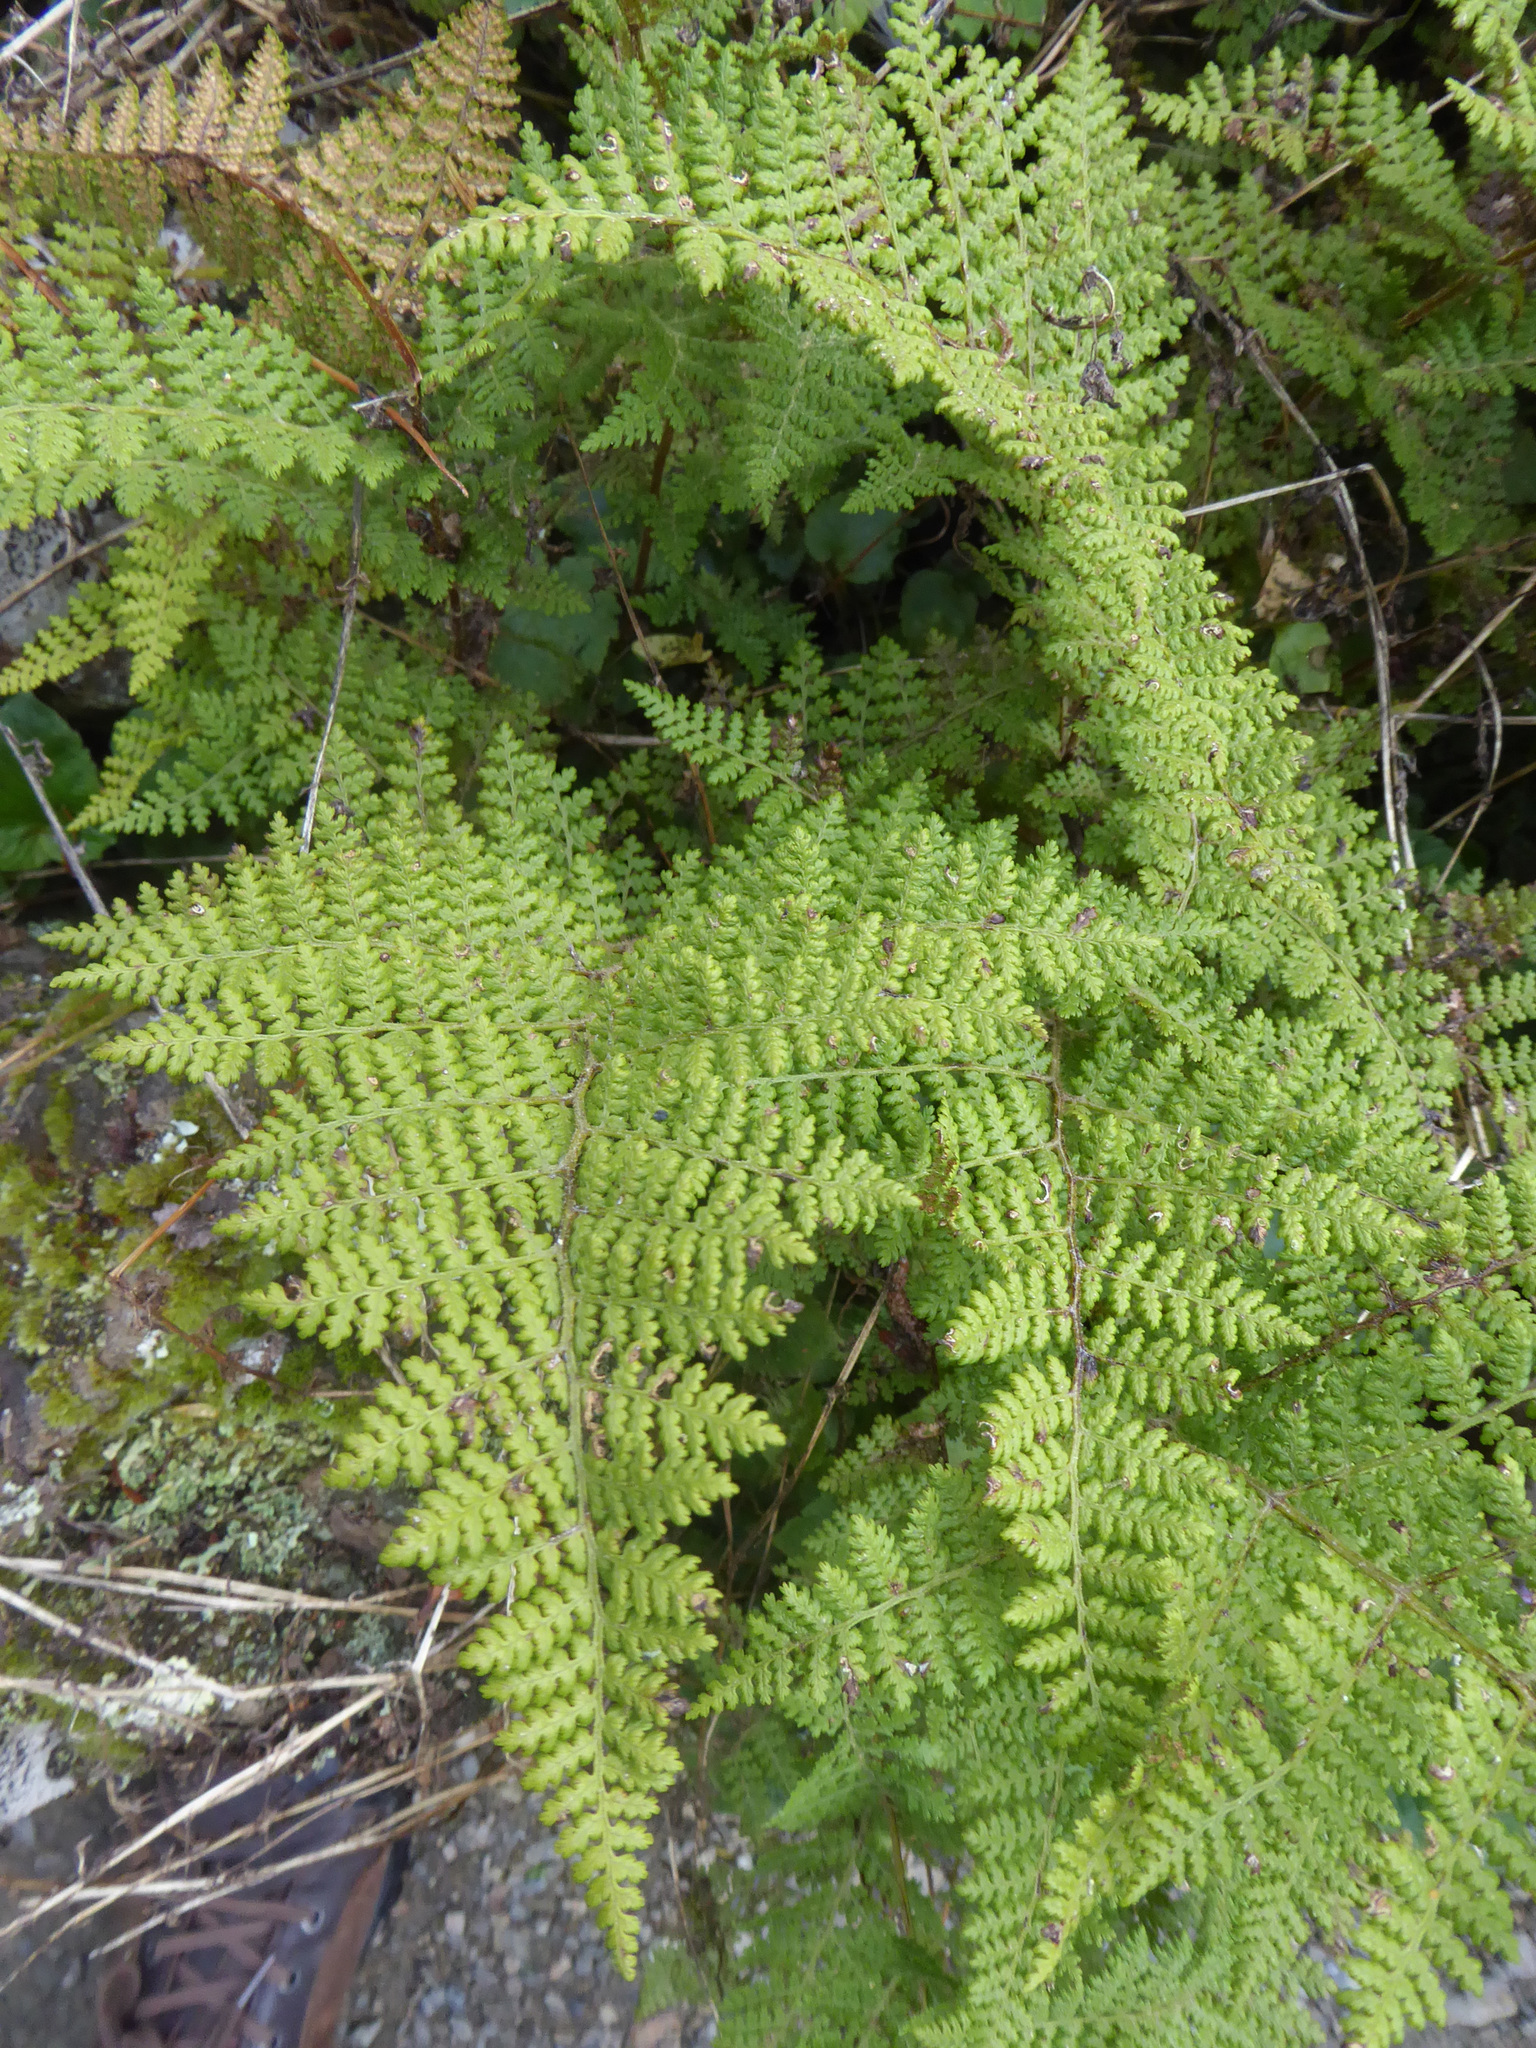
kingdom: Plantae
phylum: Tracheophyta
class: Polypodiopsida
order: Polypodiales
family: Dennstaedtiaceae
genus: Hypolepis
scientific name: Hypolepis millefolium
